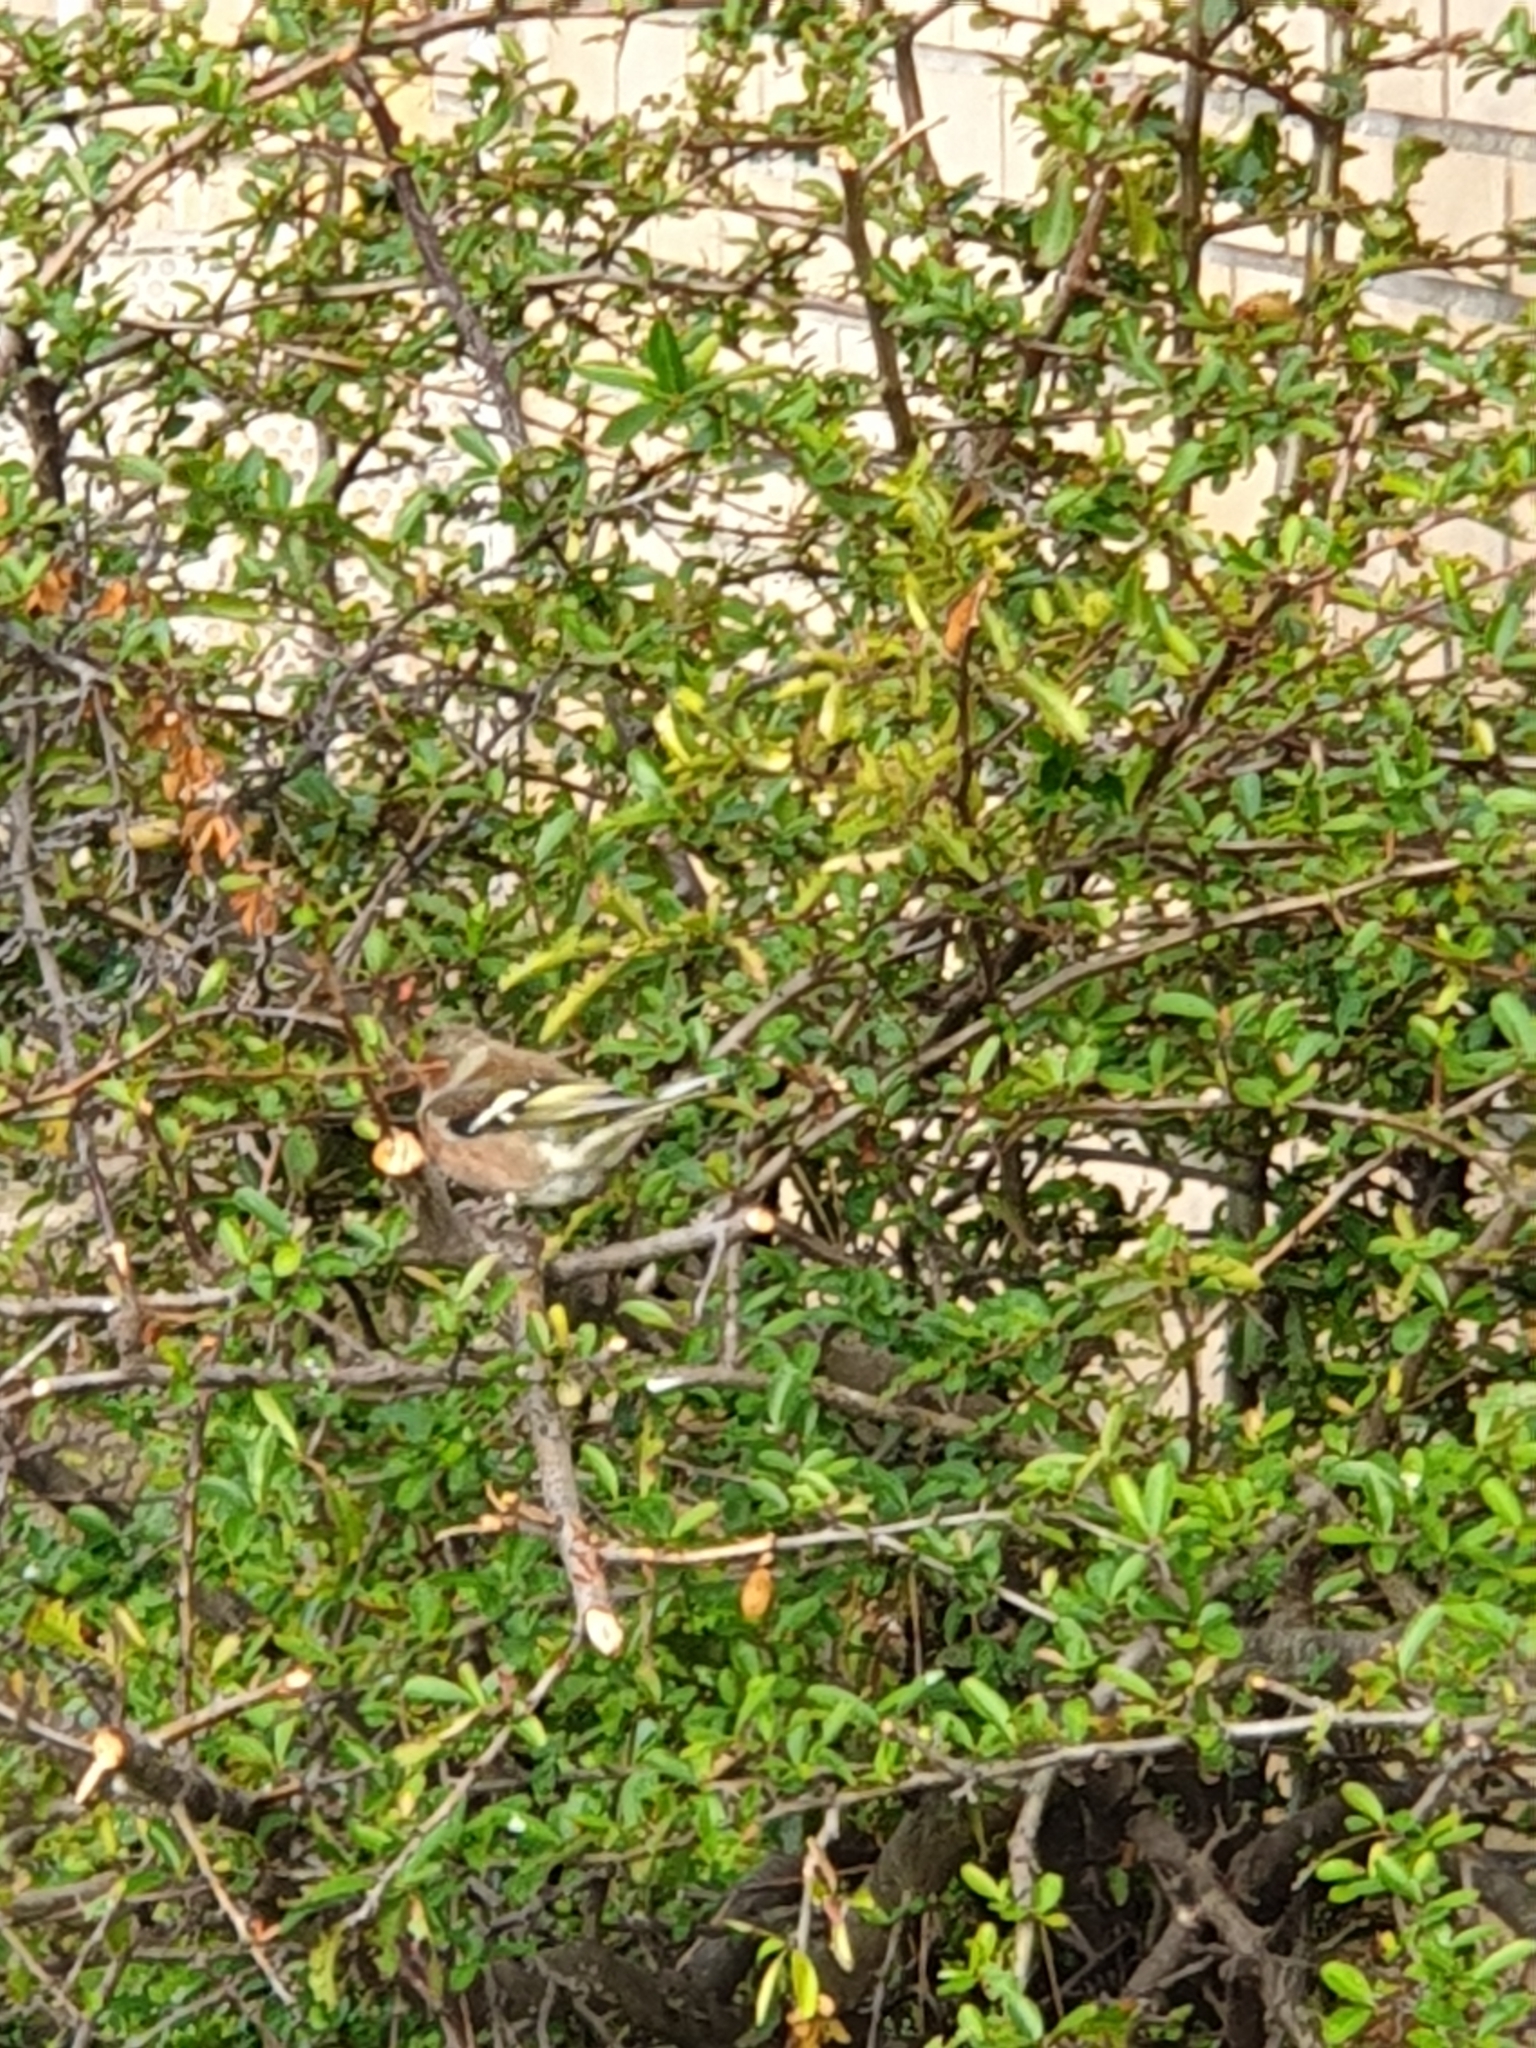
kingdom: Animalia
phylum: Chordata
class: Aves
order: Passeriformes
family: Fringillidae
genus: Fringilla
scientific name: Fringilla coelebs
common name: Common chaffinch
